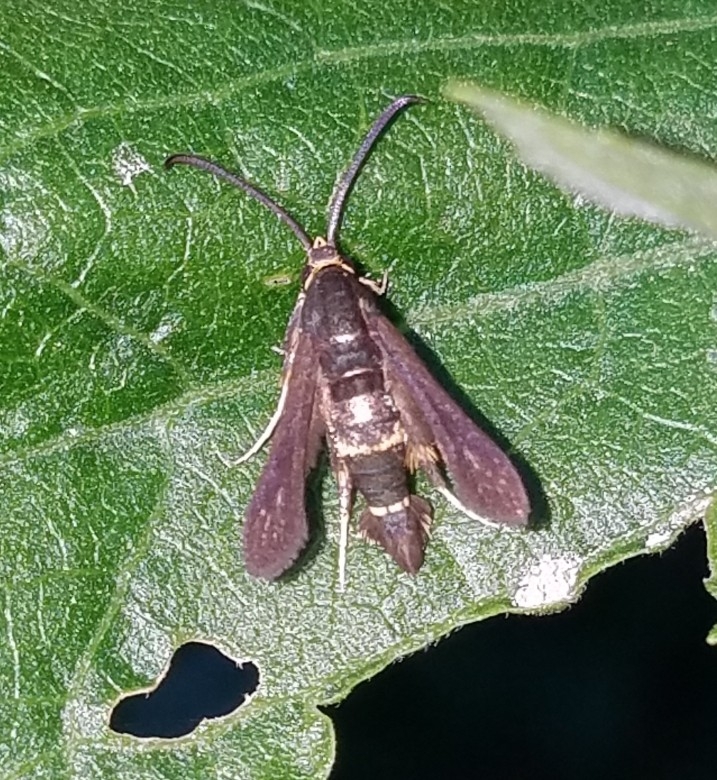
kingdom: Animalia
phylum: Arthropoda
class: Insecta
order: Lepidoptera
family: Sesiidae
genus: Carmenta
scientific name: Carmenta pyralidiformis
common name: Boneset borer moth
